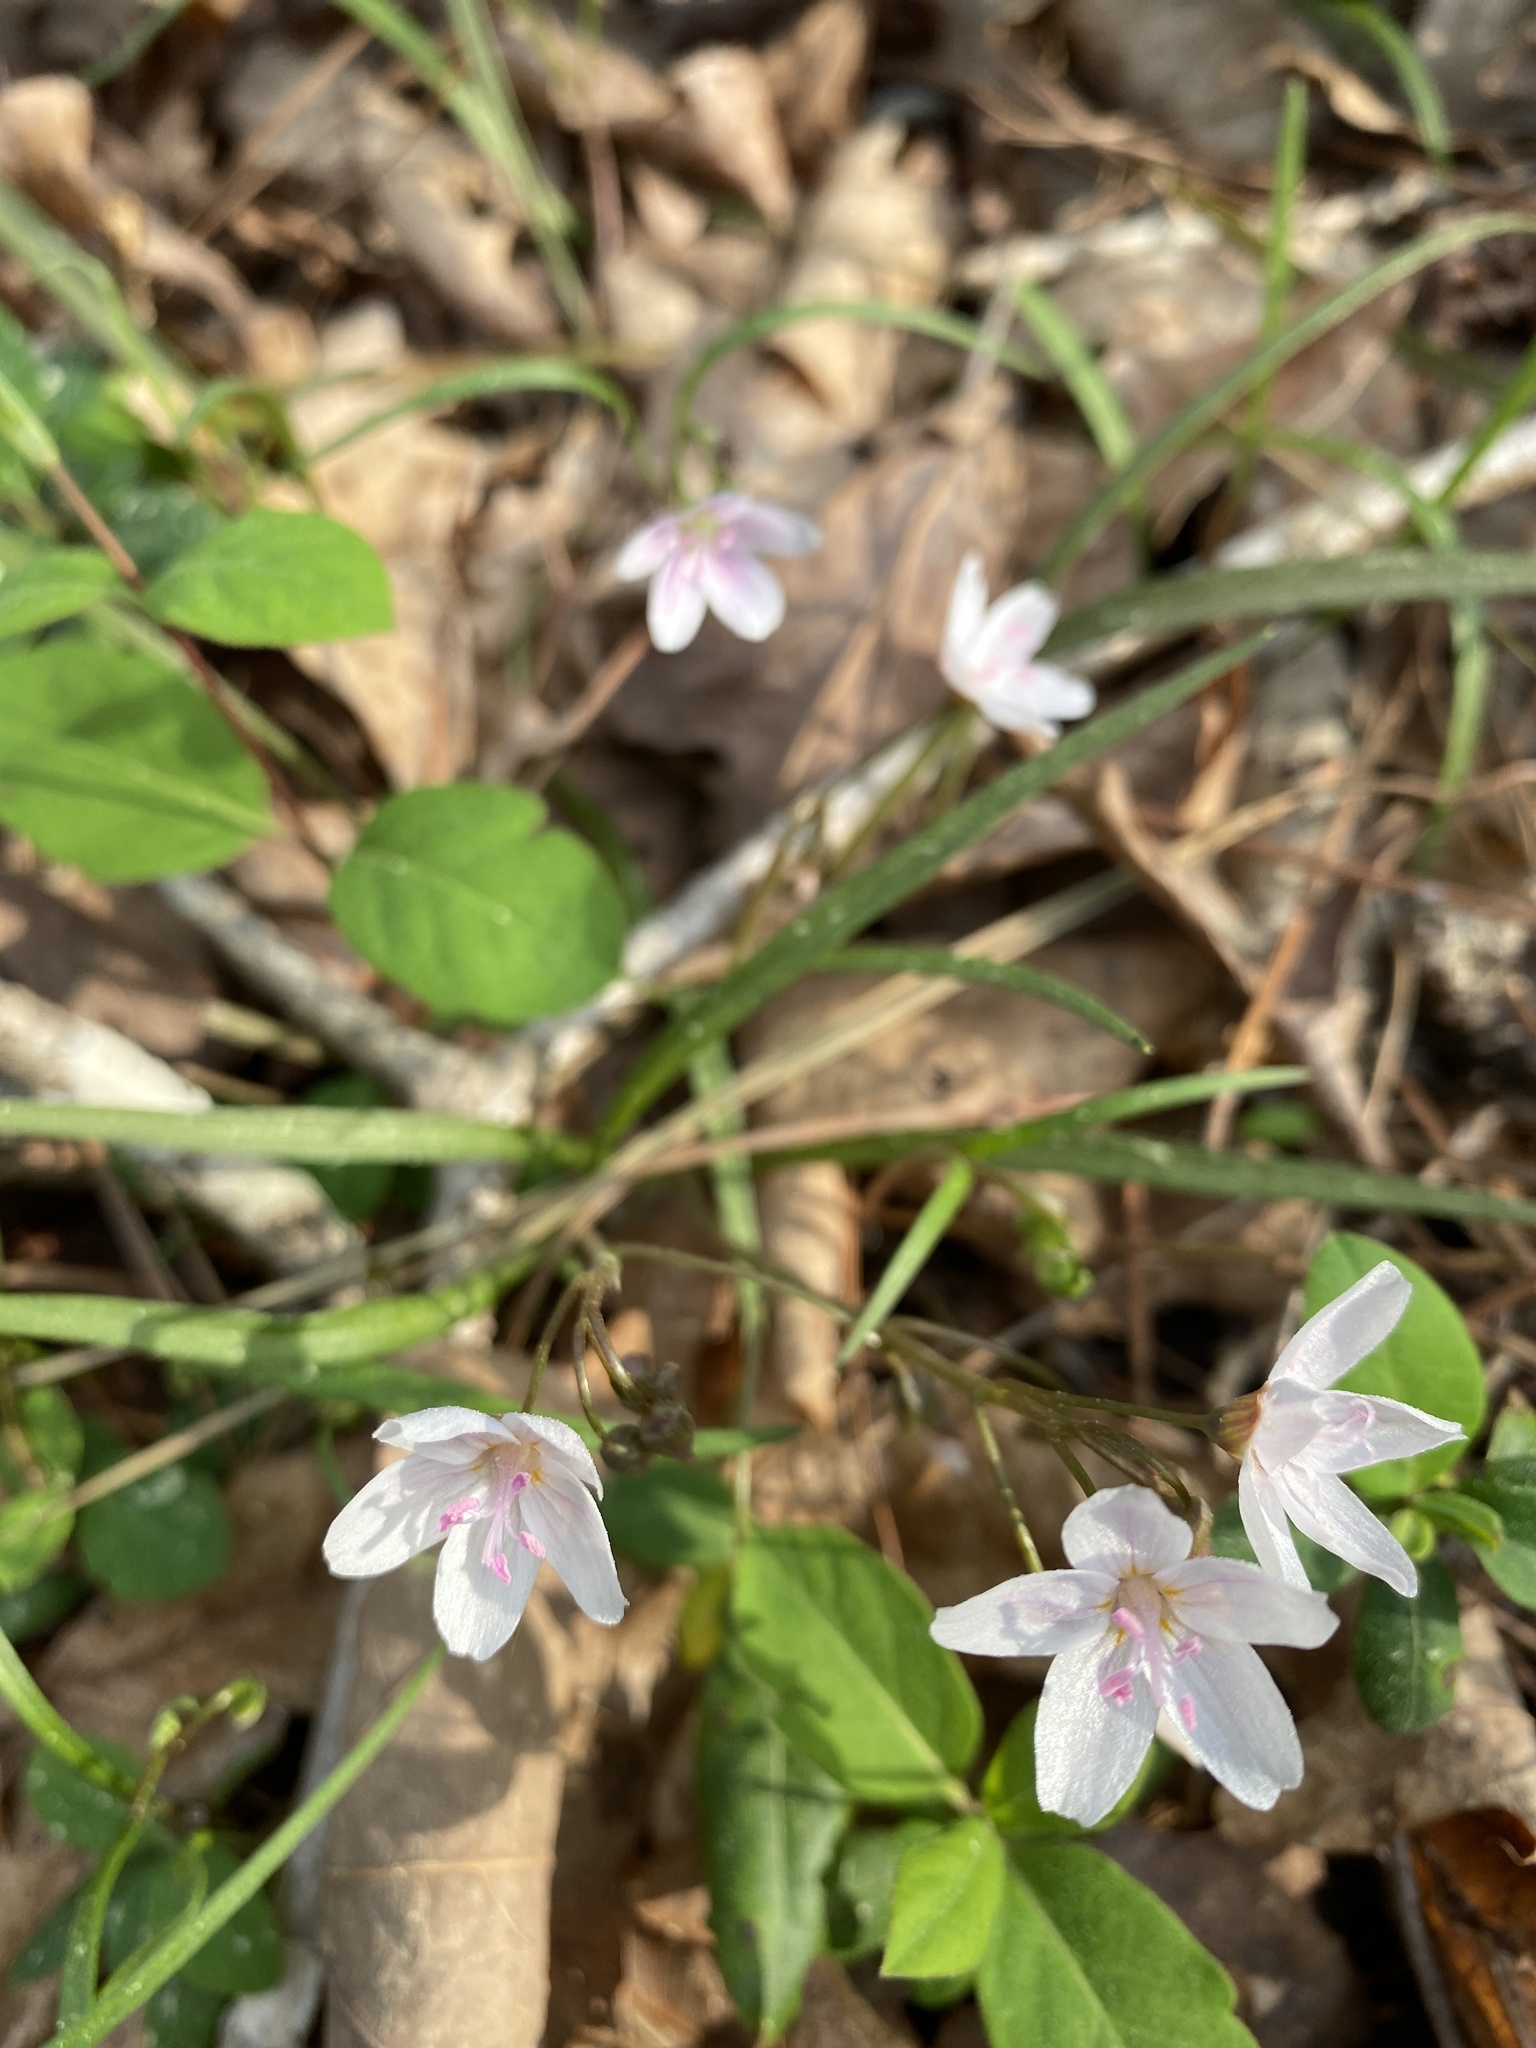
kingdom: Plantae
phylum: Tracheophyta
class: Magnoliopsida
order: Caryophyllales
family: Montiaceae
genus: Claytonia
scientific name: Claytonia virginica
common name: Virginia springbeauty
